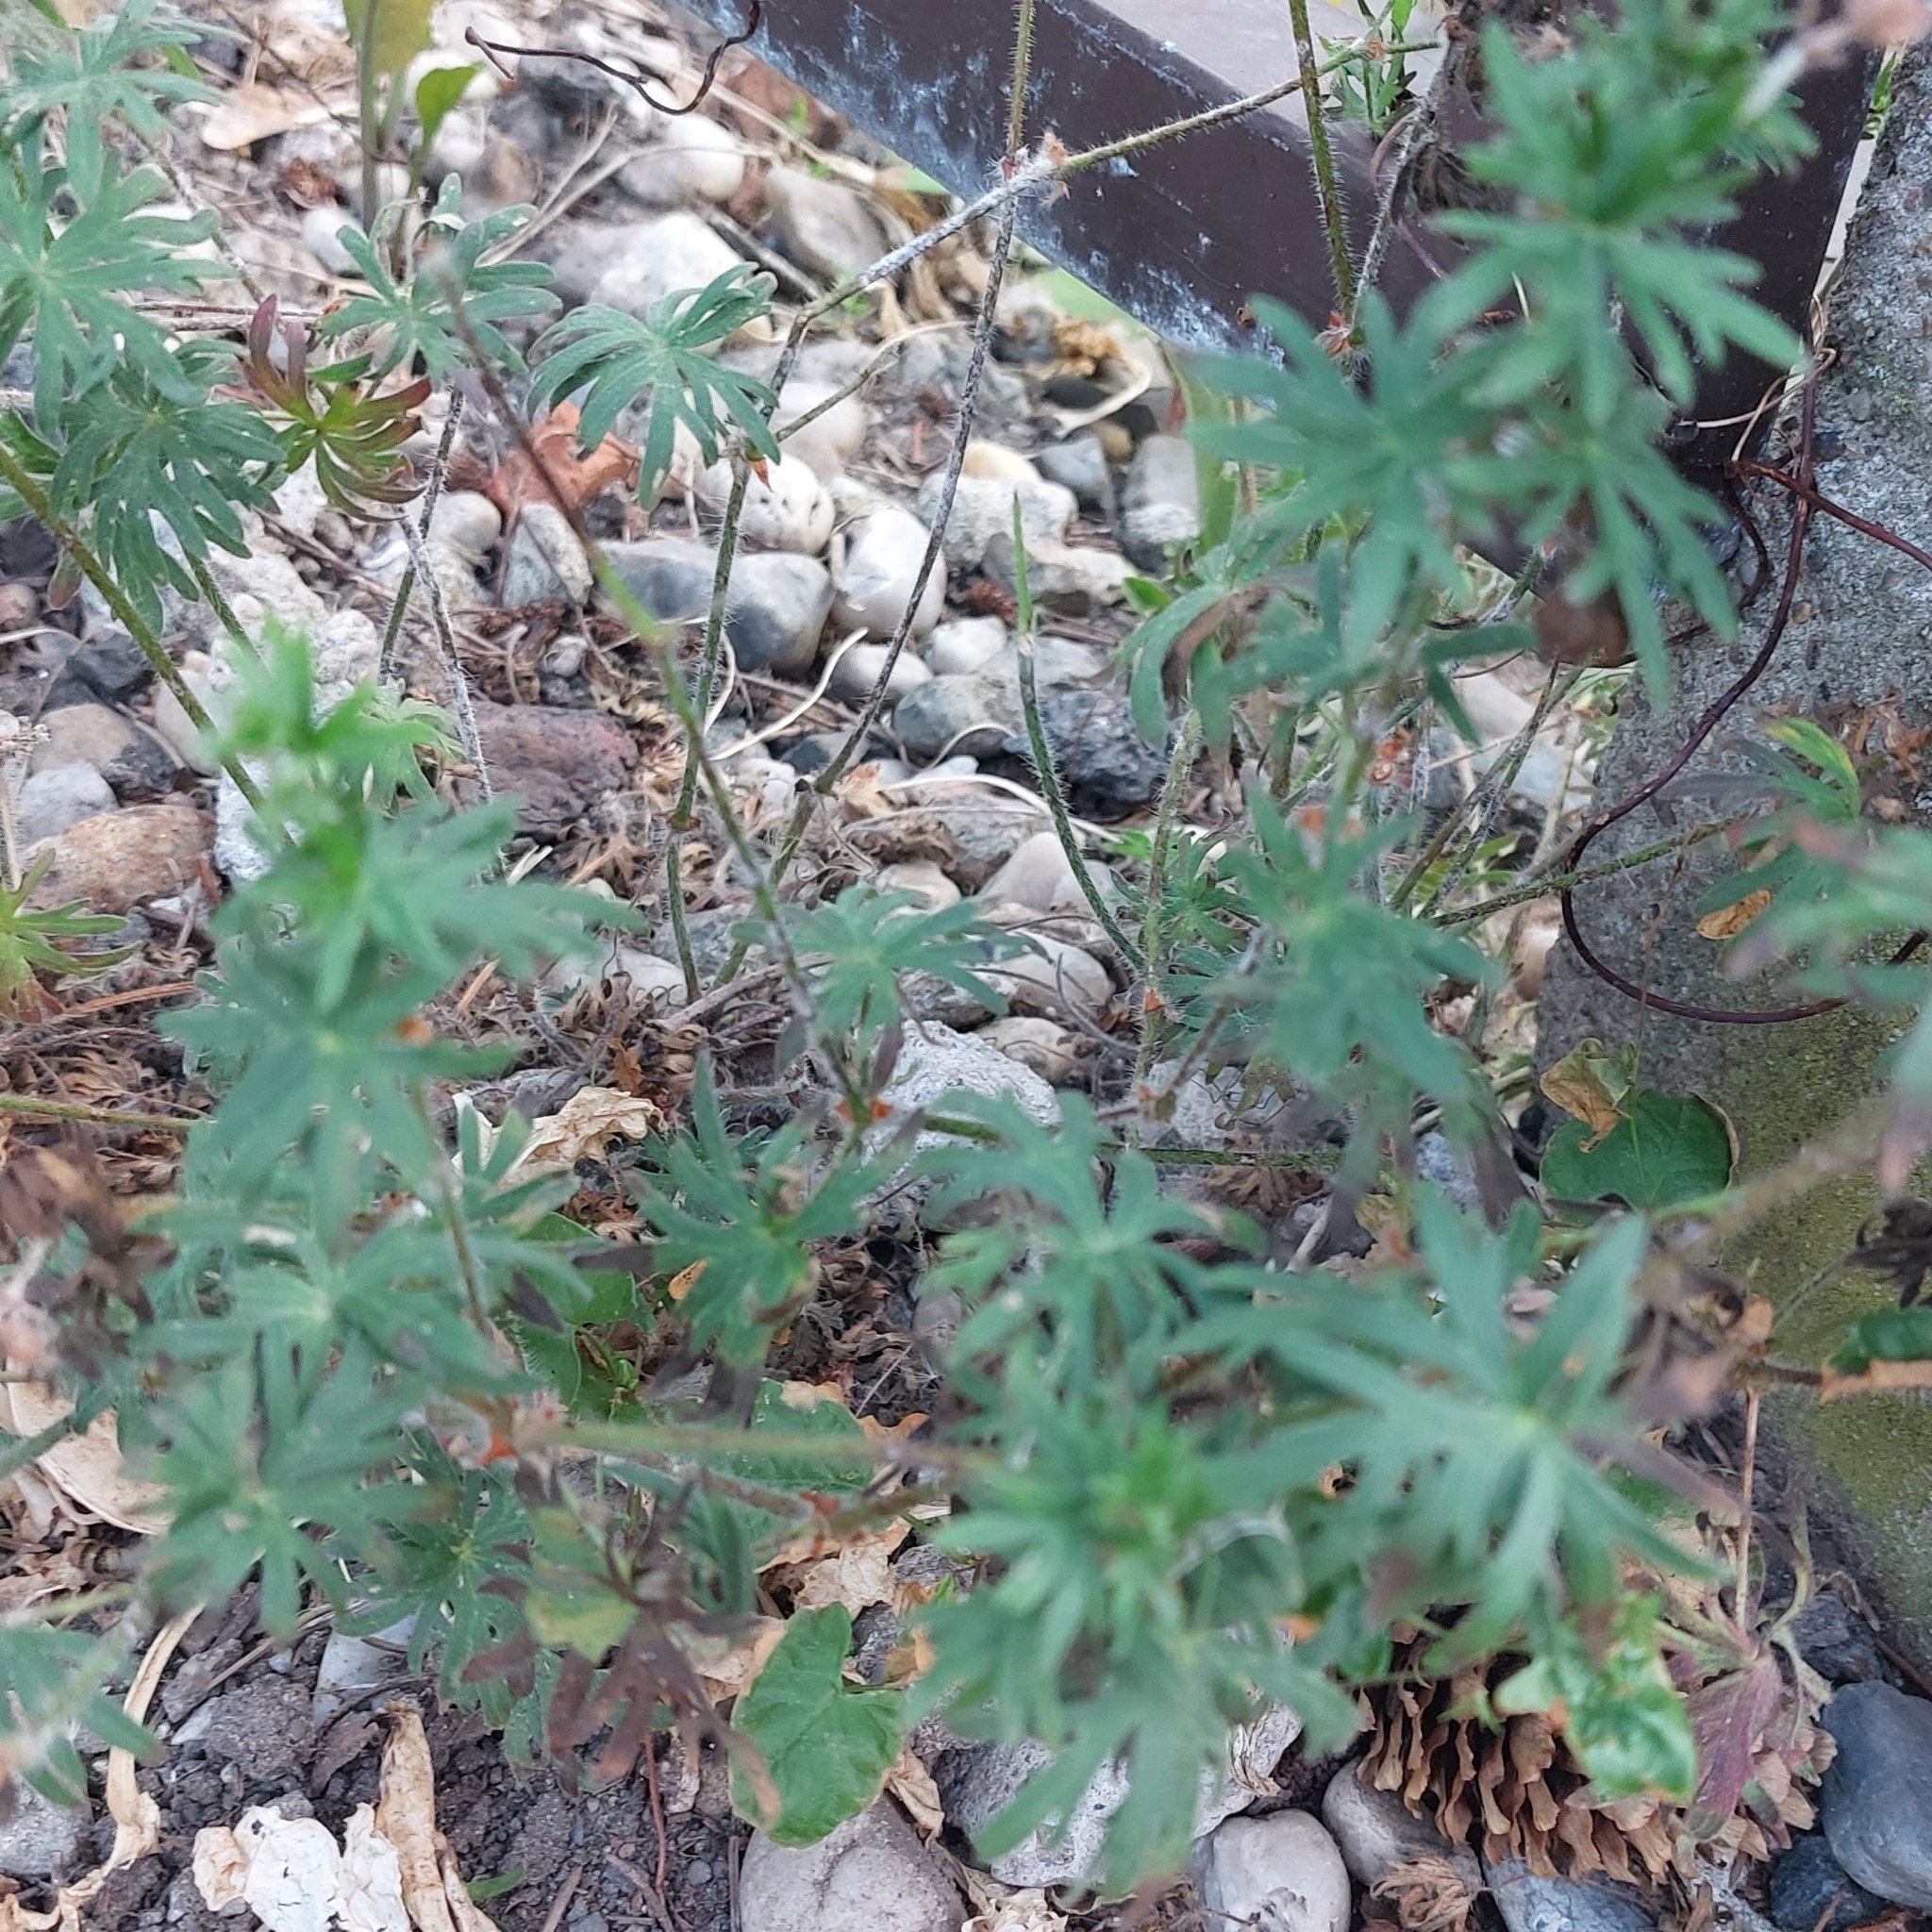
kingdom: Plantae
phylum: Tracheophyta
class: Magnoliopsida
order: Geraniales
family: Geraniaceae
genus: Geranium
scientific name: Geranium sanguineum
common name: Bloody crane's-bill
